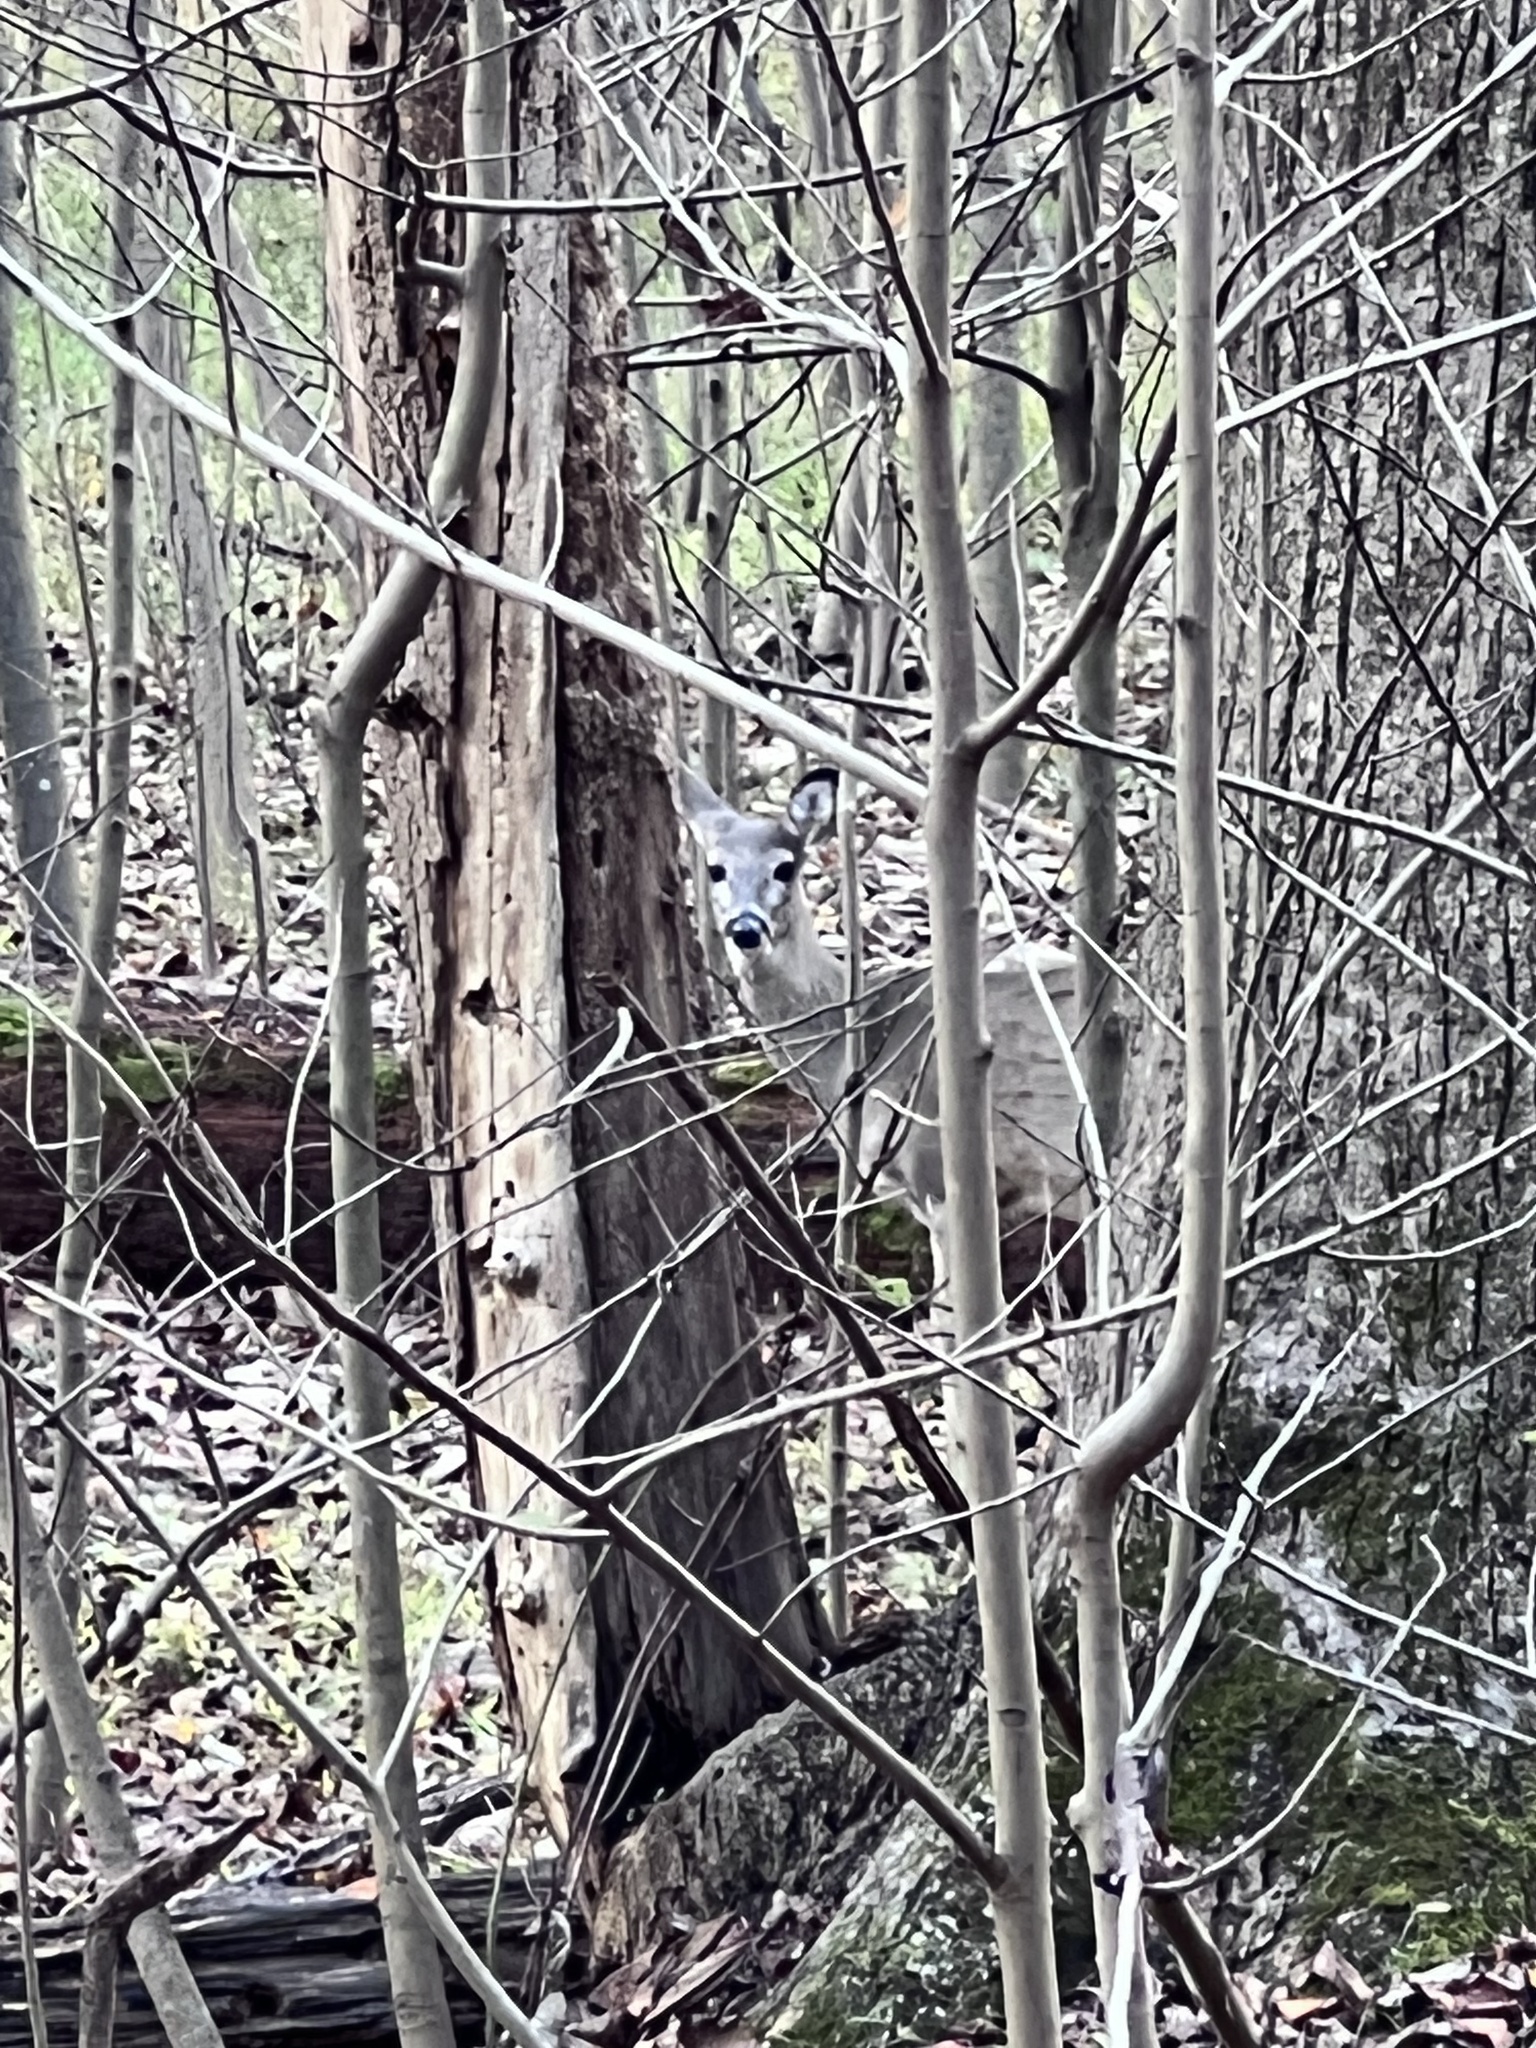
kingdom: Animalia
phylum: Chordata
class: Mammalia
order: Artiodactyla
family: Cervidae
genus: Odocoileus
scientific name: Odocoileus virginianus
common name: White-tailed deer
